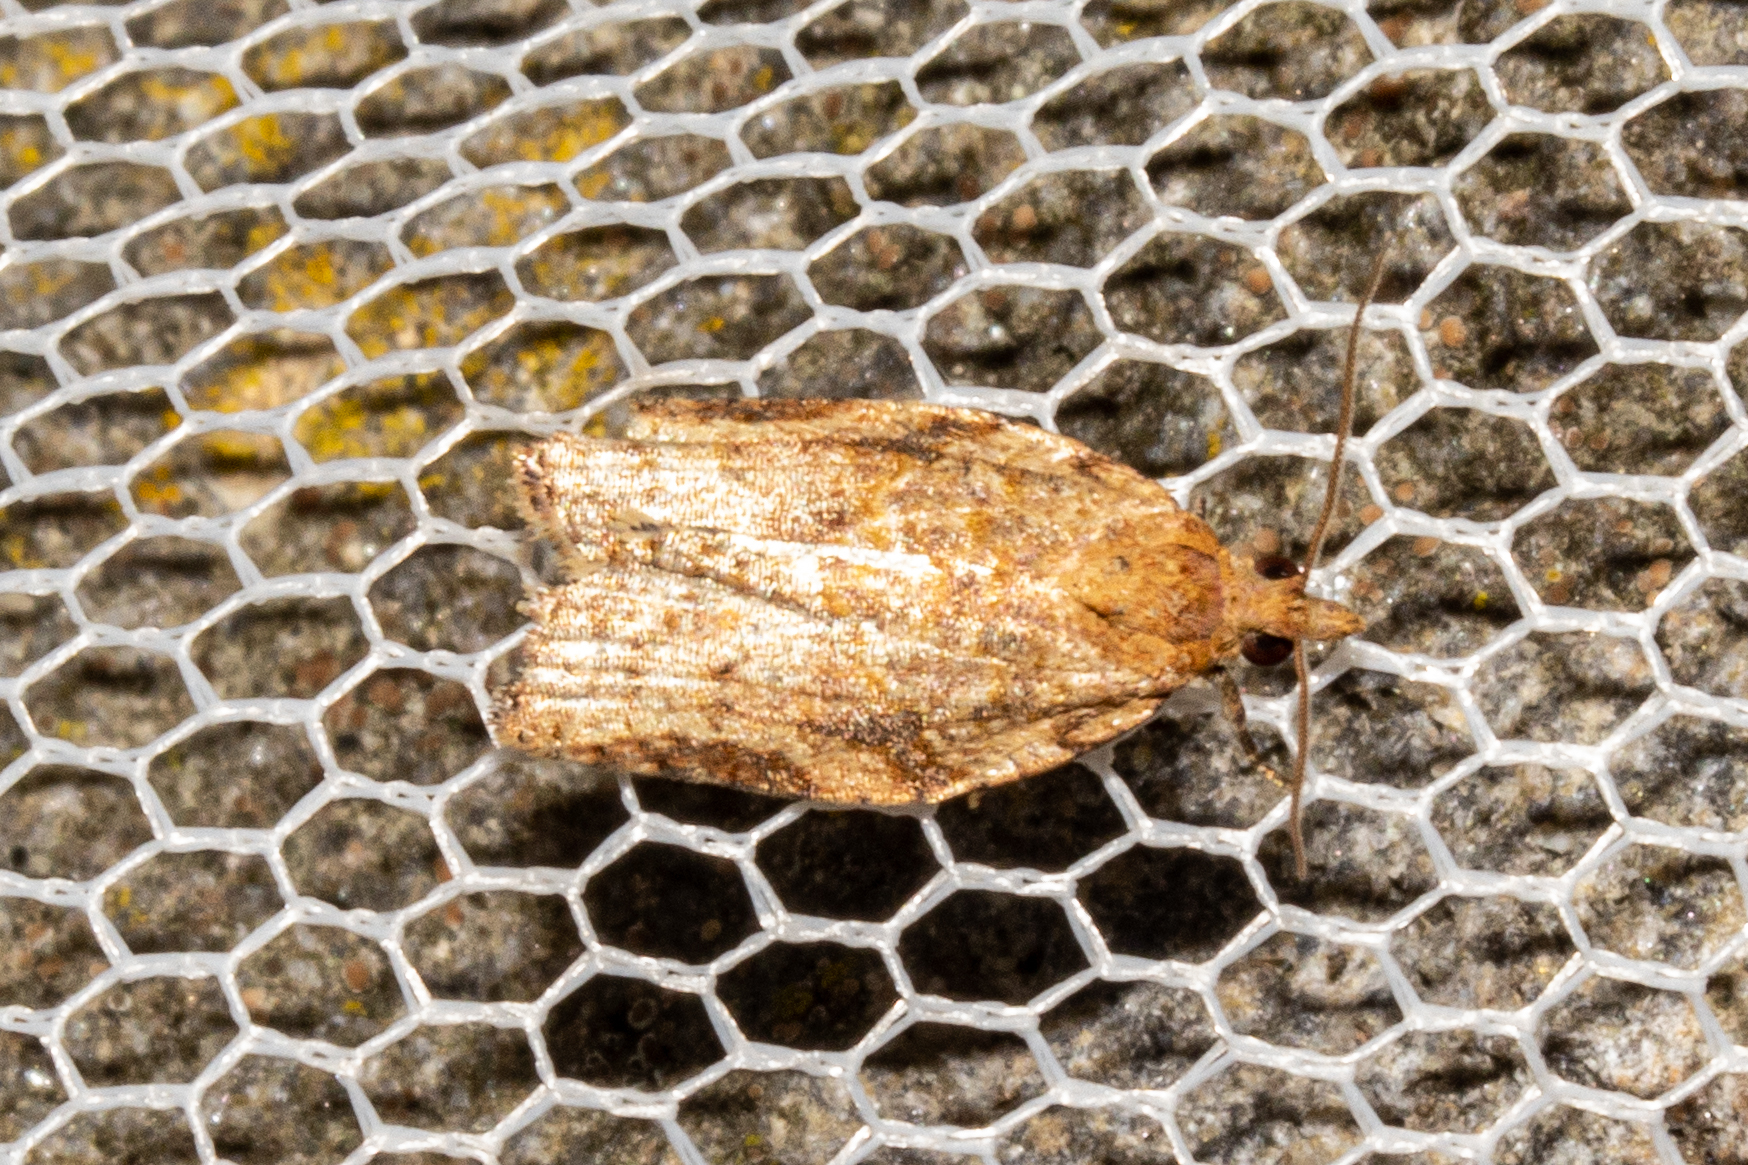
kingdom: Animalia
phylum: Arthropoda
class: Insecta
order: Lepidoptera
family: Tortricidae
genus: Clepsis
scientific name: Clepsis
